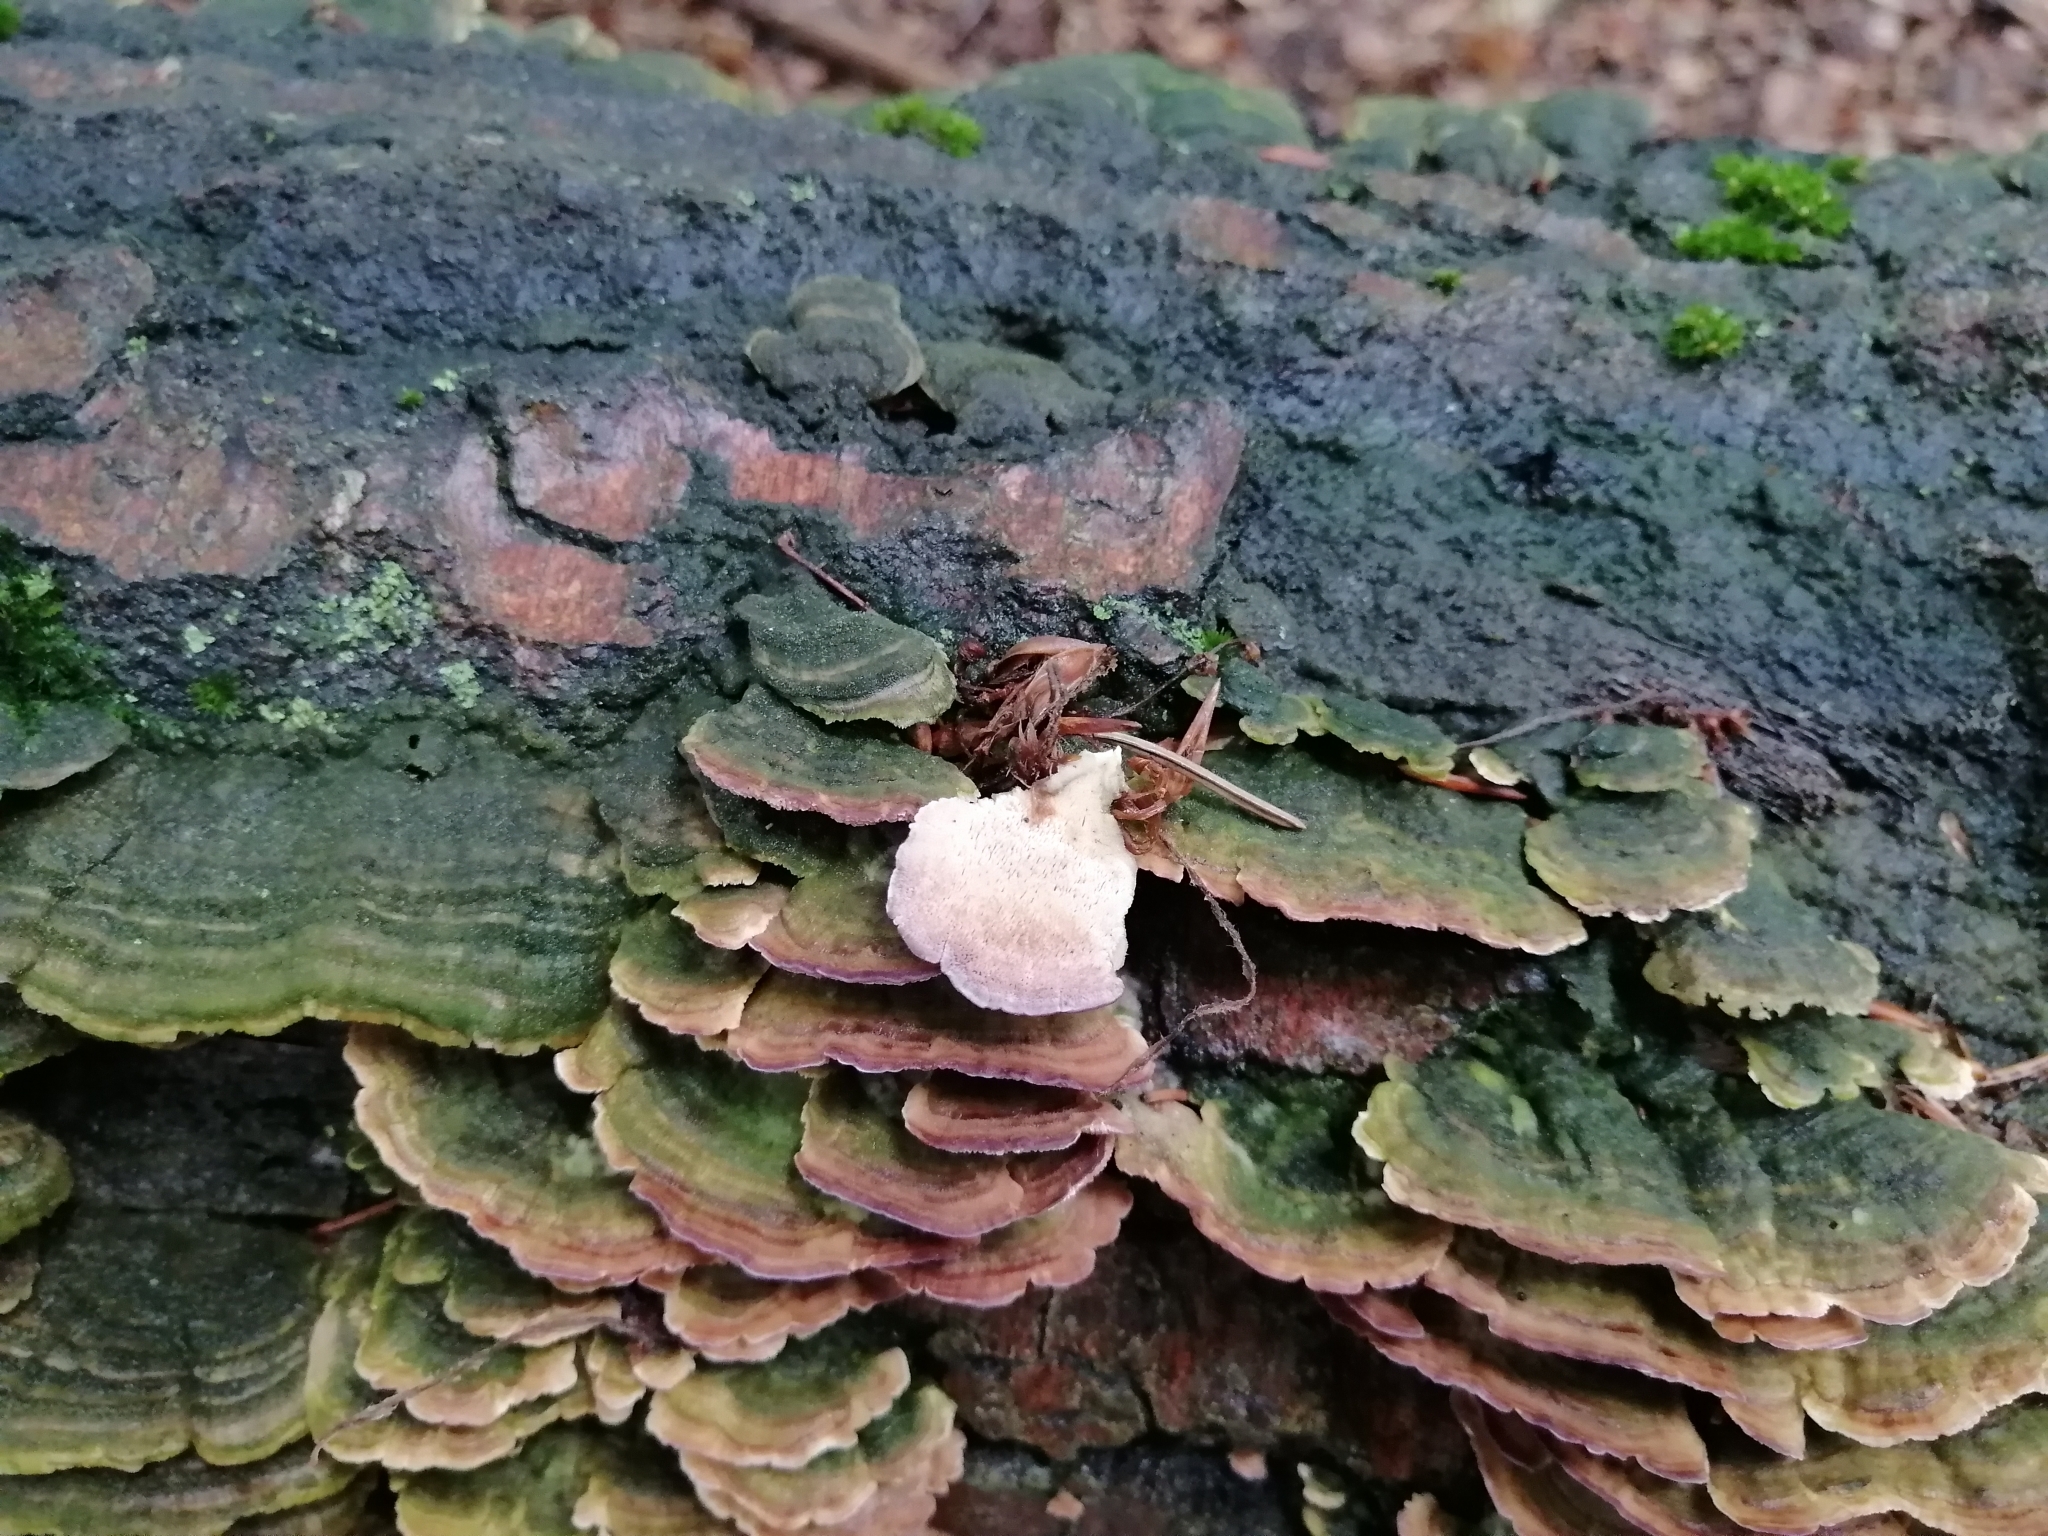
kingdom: Fungi
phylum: Basidiomycota
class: Agaricomycetes
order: Hymenochaetales
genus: Trichaptum
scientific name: Trichaptum biforme
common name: Violet-toothed polypore
